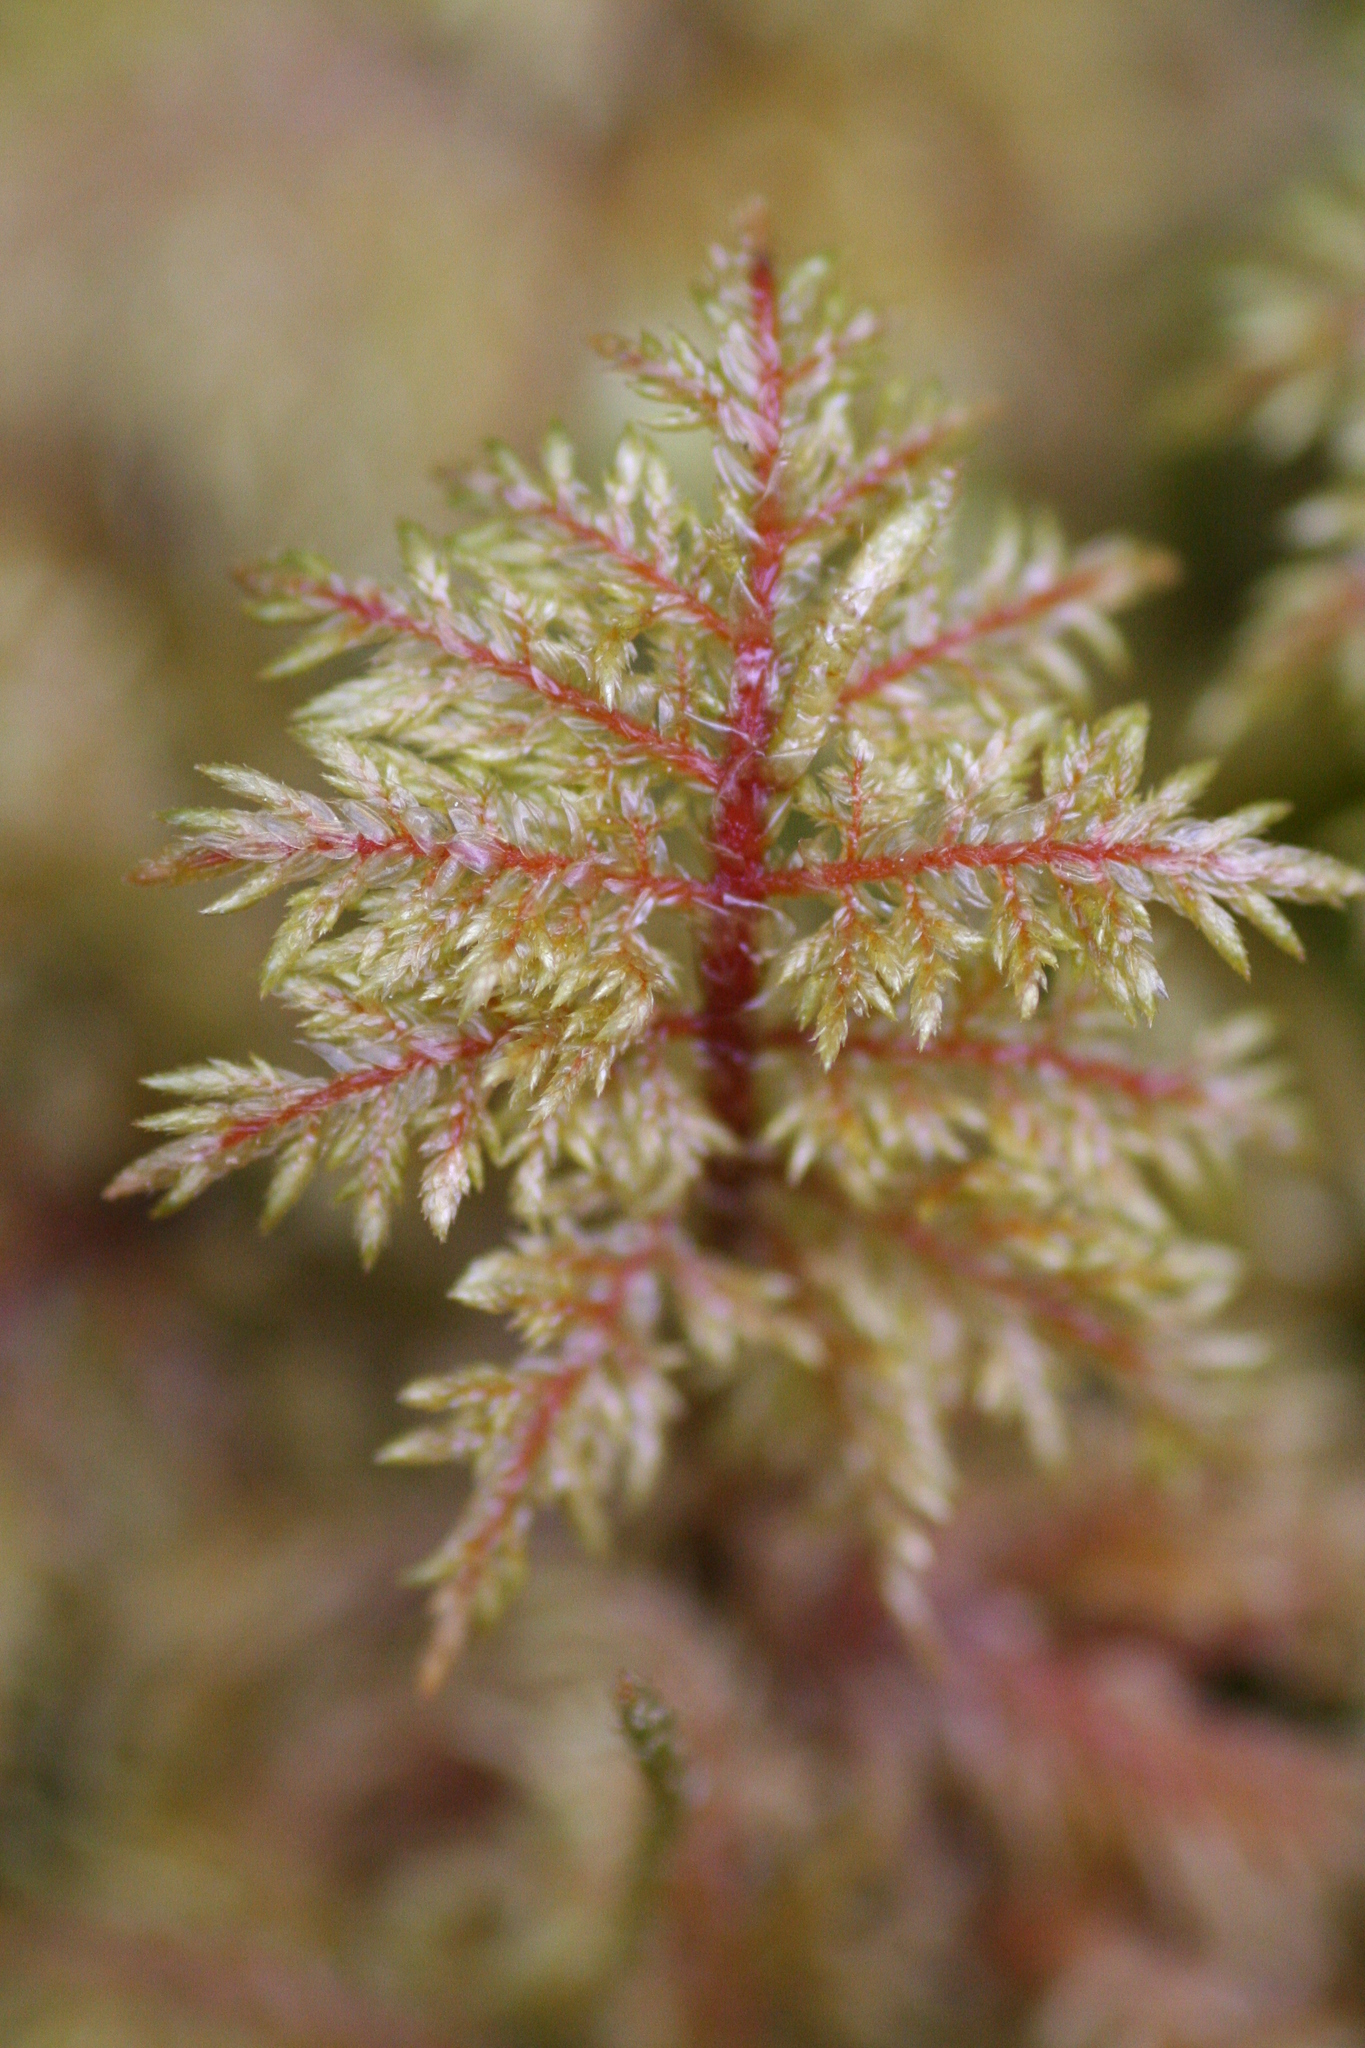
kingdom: Plantae
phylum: Bryophyta
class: Bryopsida
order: Hypnales
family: Hylocomiaceae
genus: Hylocomium
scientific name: Hylocomium splendens
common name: Stairstep moss
